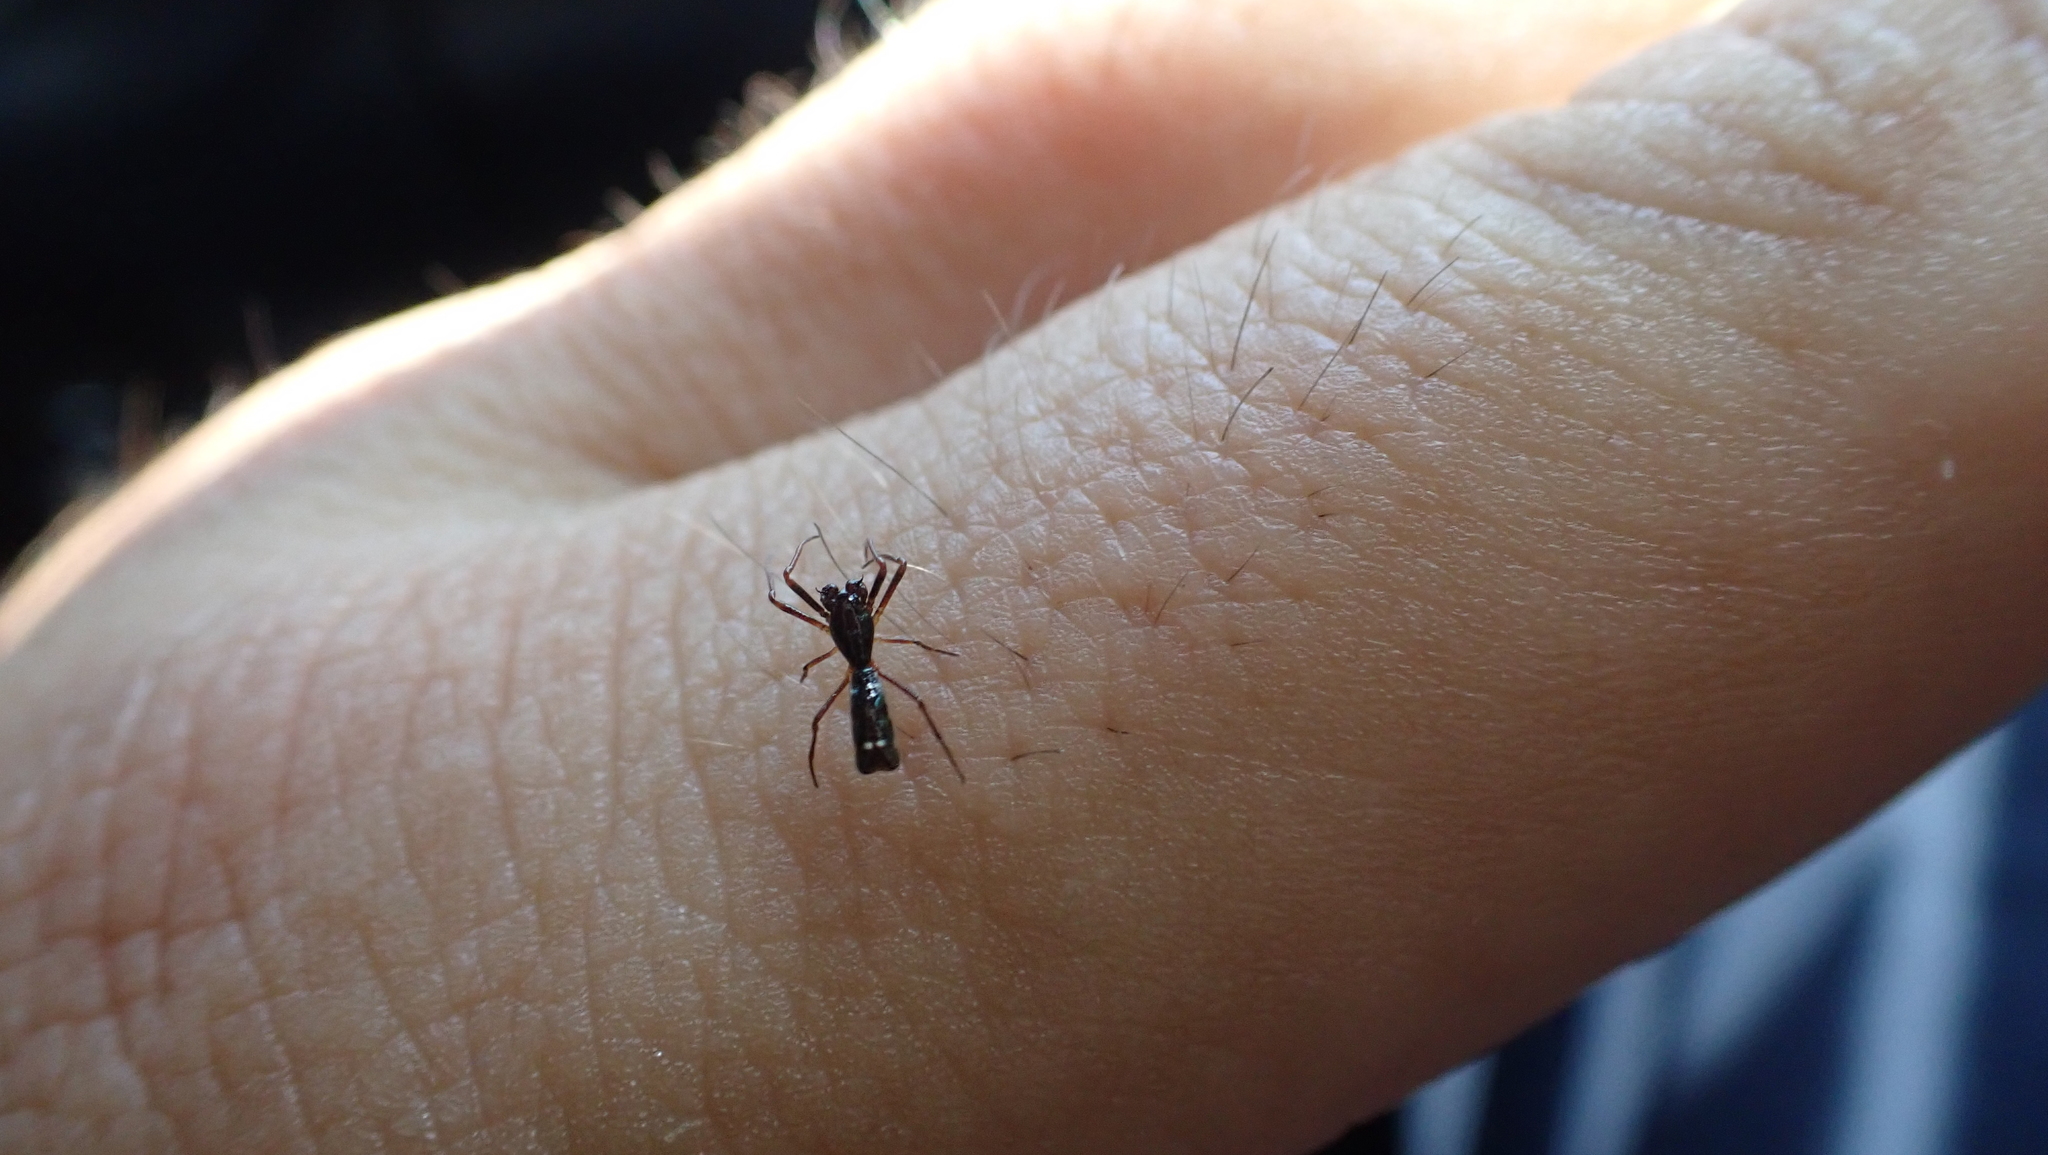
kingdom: Animalia
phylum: Arthropoda
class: Arachnida
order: Araneae
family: Araneidae
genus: Micrathena
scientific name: Micrathena sexspinosa
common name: Orb weavers
